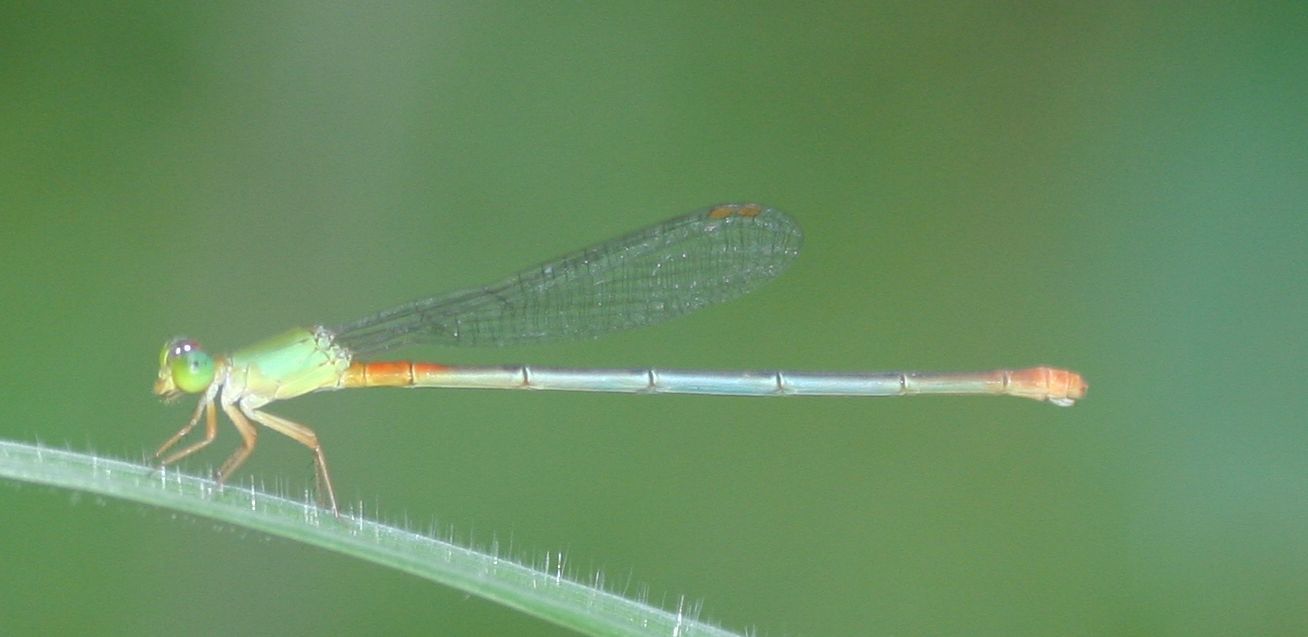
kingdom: Animalia
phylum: Arthropoda
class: Insecta
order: Odonata
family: Coenagrionidae
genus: Ceriagrion
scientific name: Ceriagrion cerinorubellum
